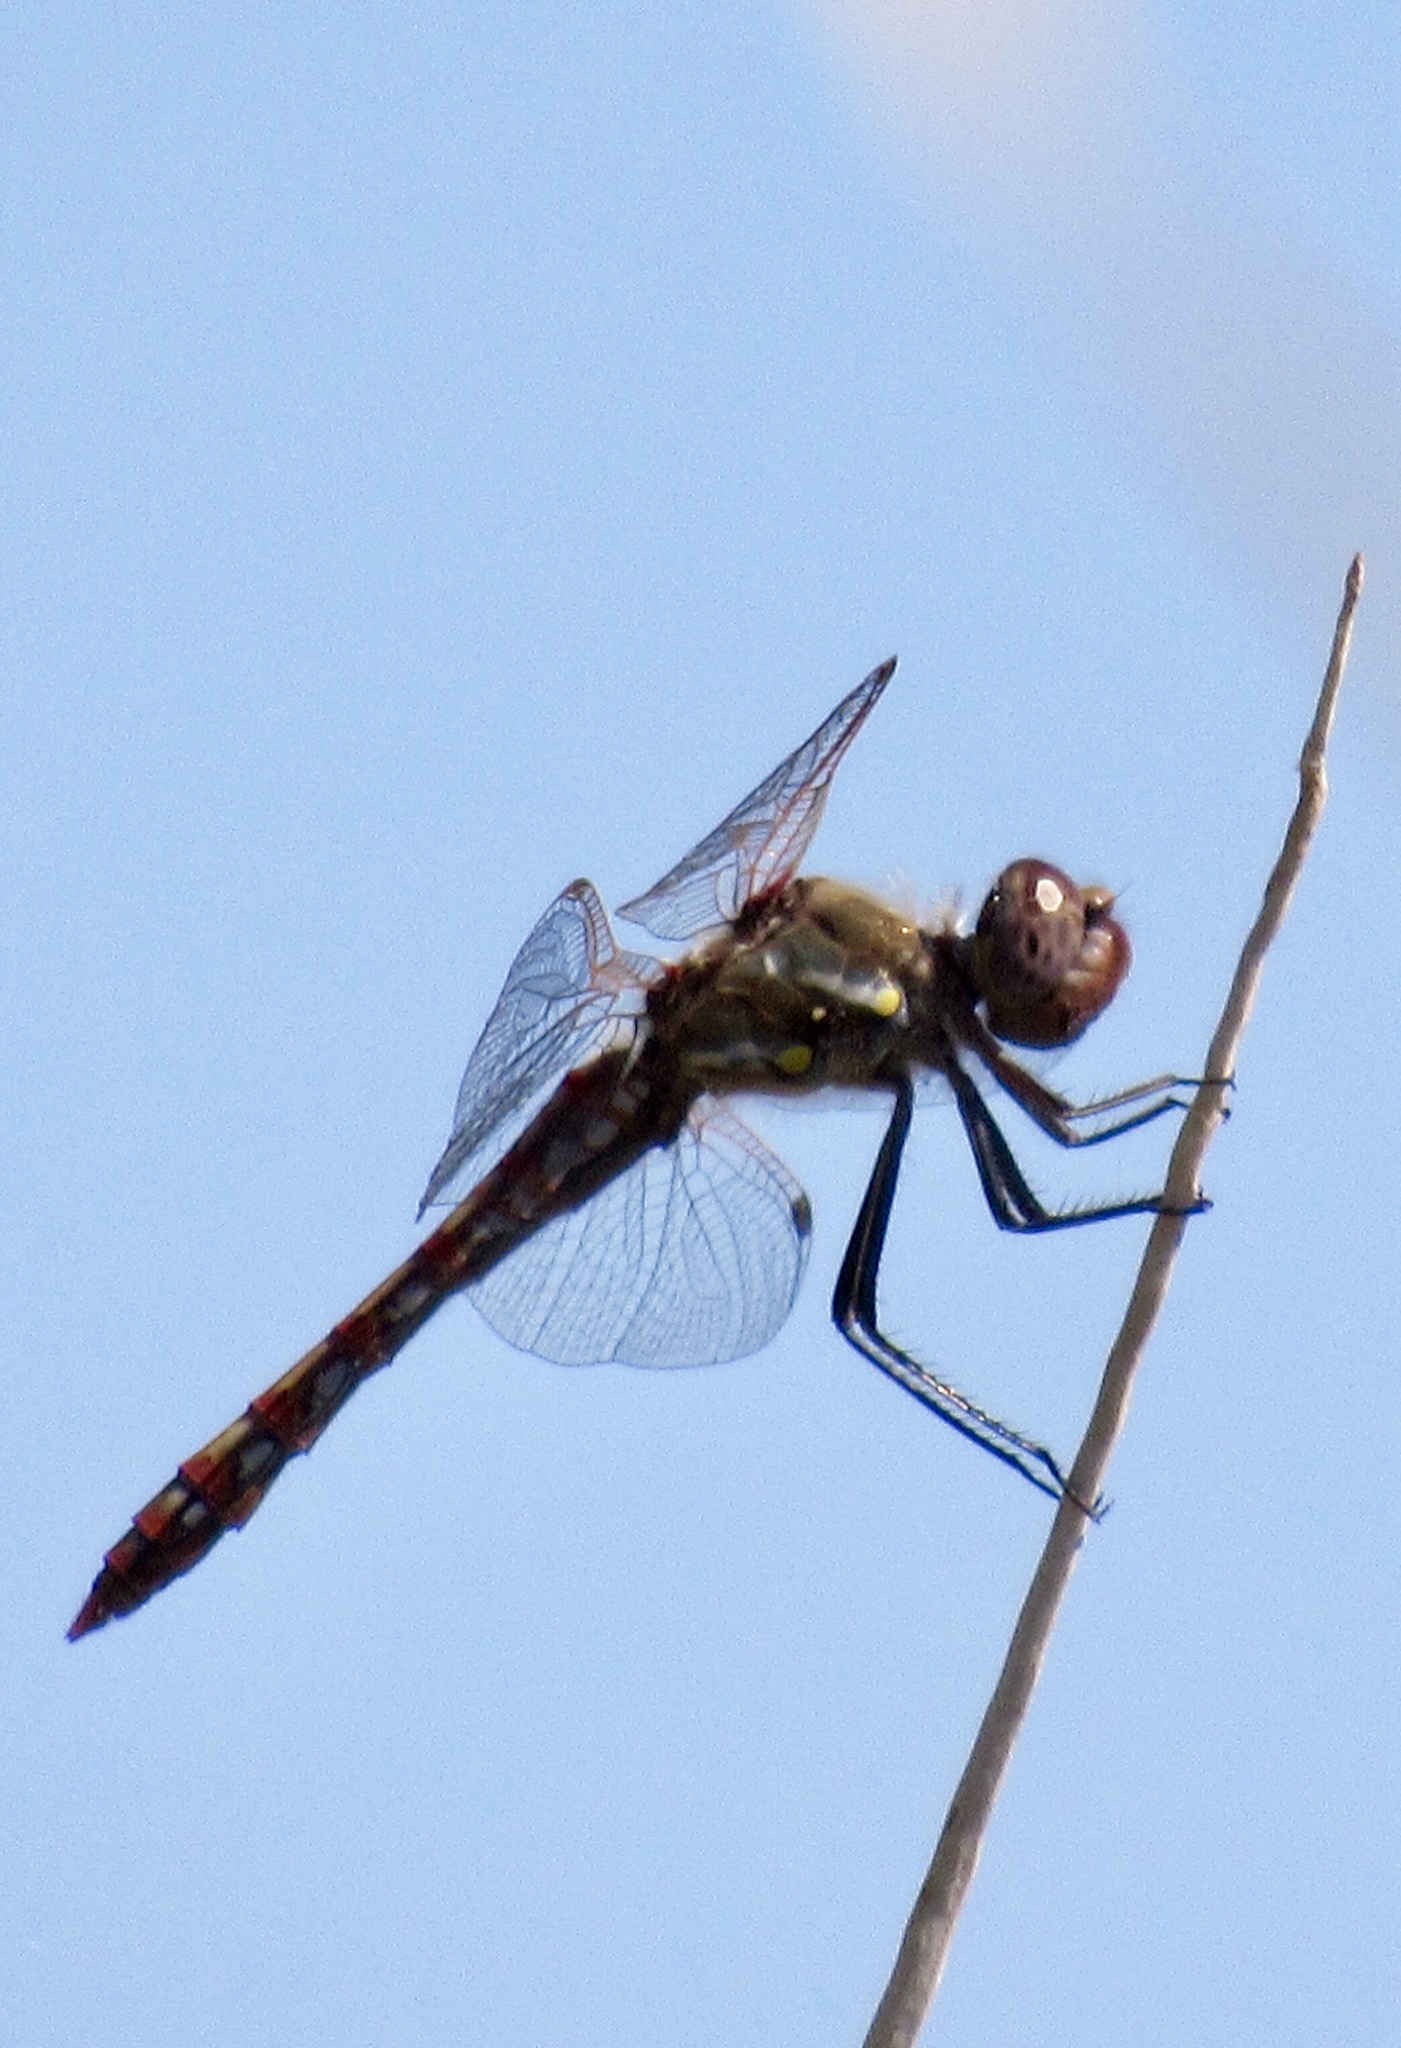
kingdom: Animalia
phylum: Arthropoda
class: Insecta
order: Odonata
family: Libellulidae
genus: Sympetrum
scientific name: Sympetrum corruptum
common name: Variegated meadowhawk
